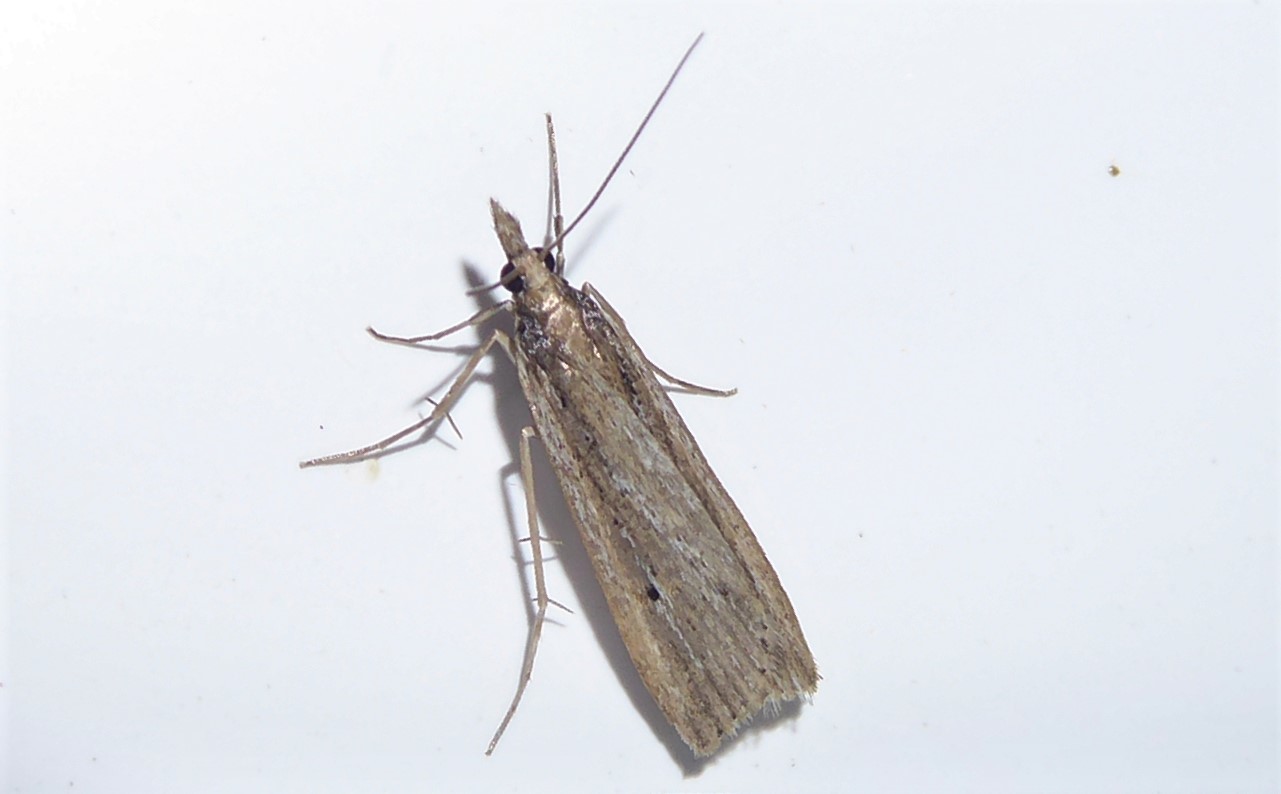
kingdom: Animalia
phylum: Arthropoda
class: Insecta
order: Lepidoptera
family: Crambidae
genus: Eudonia
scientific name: Eudonia sabulosella
